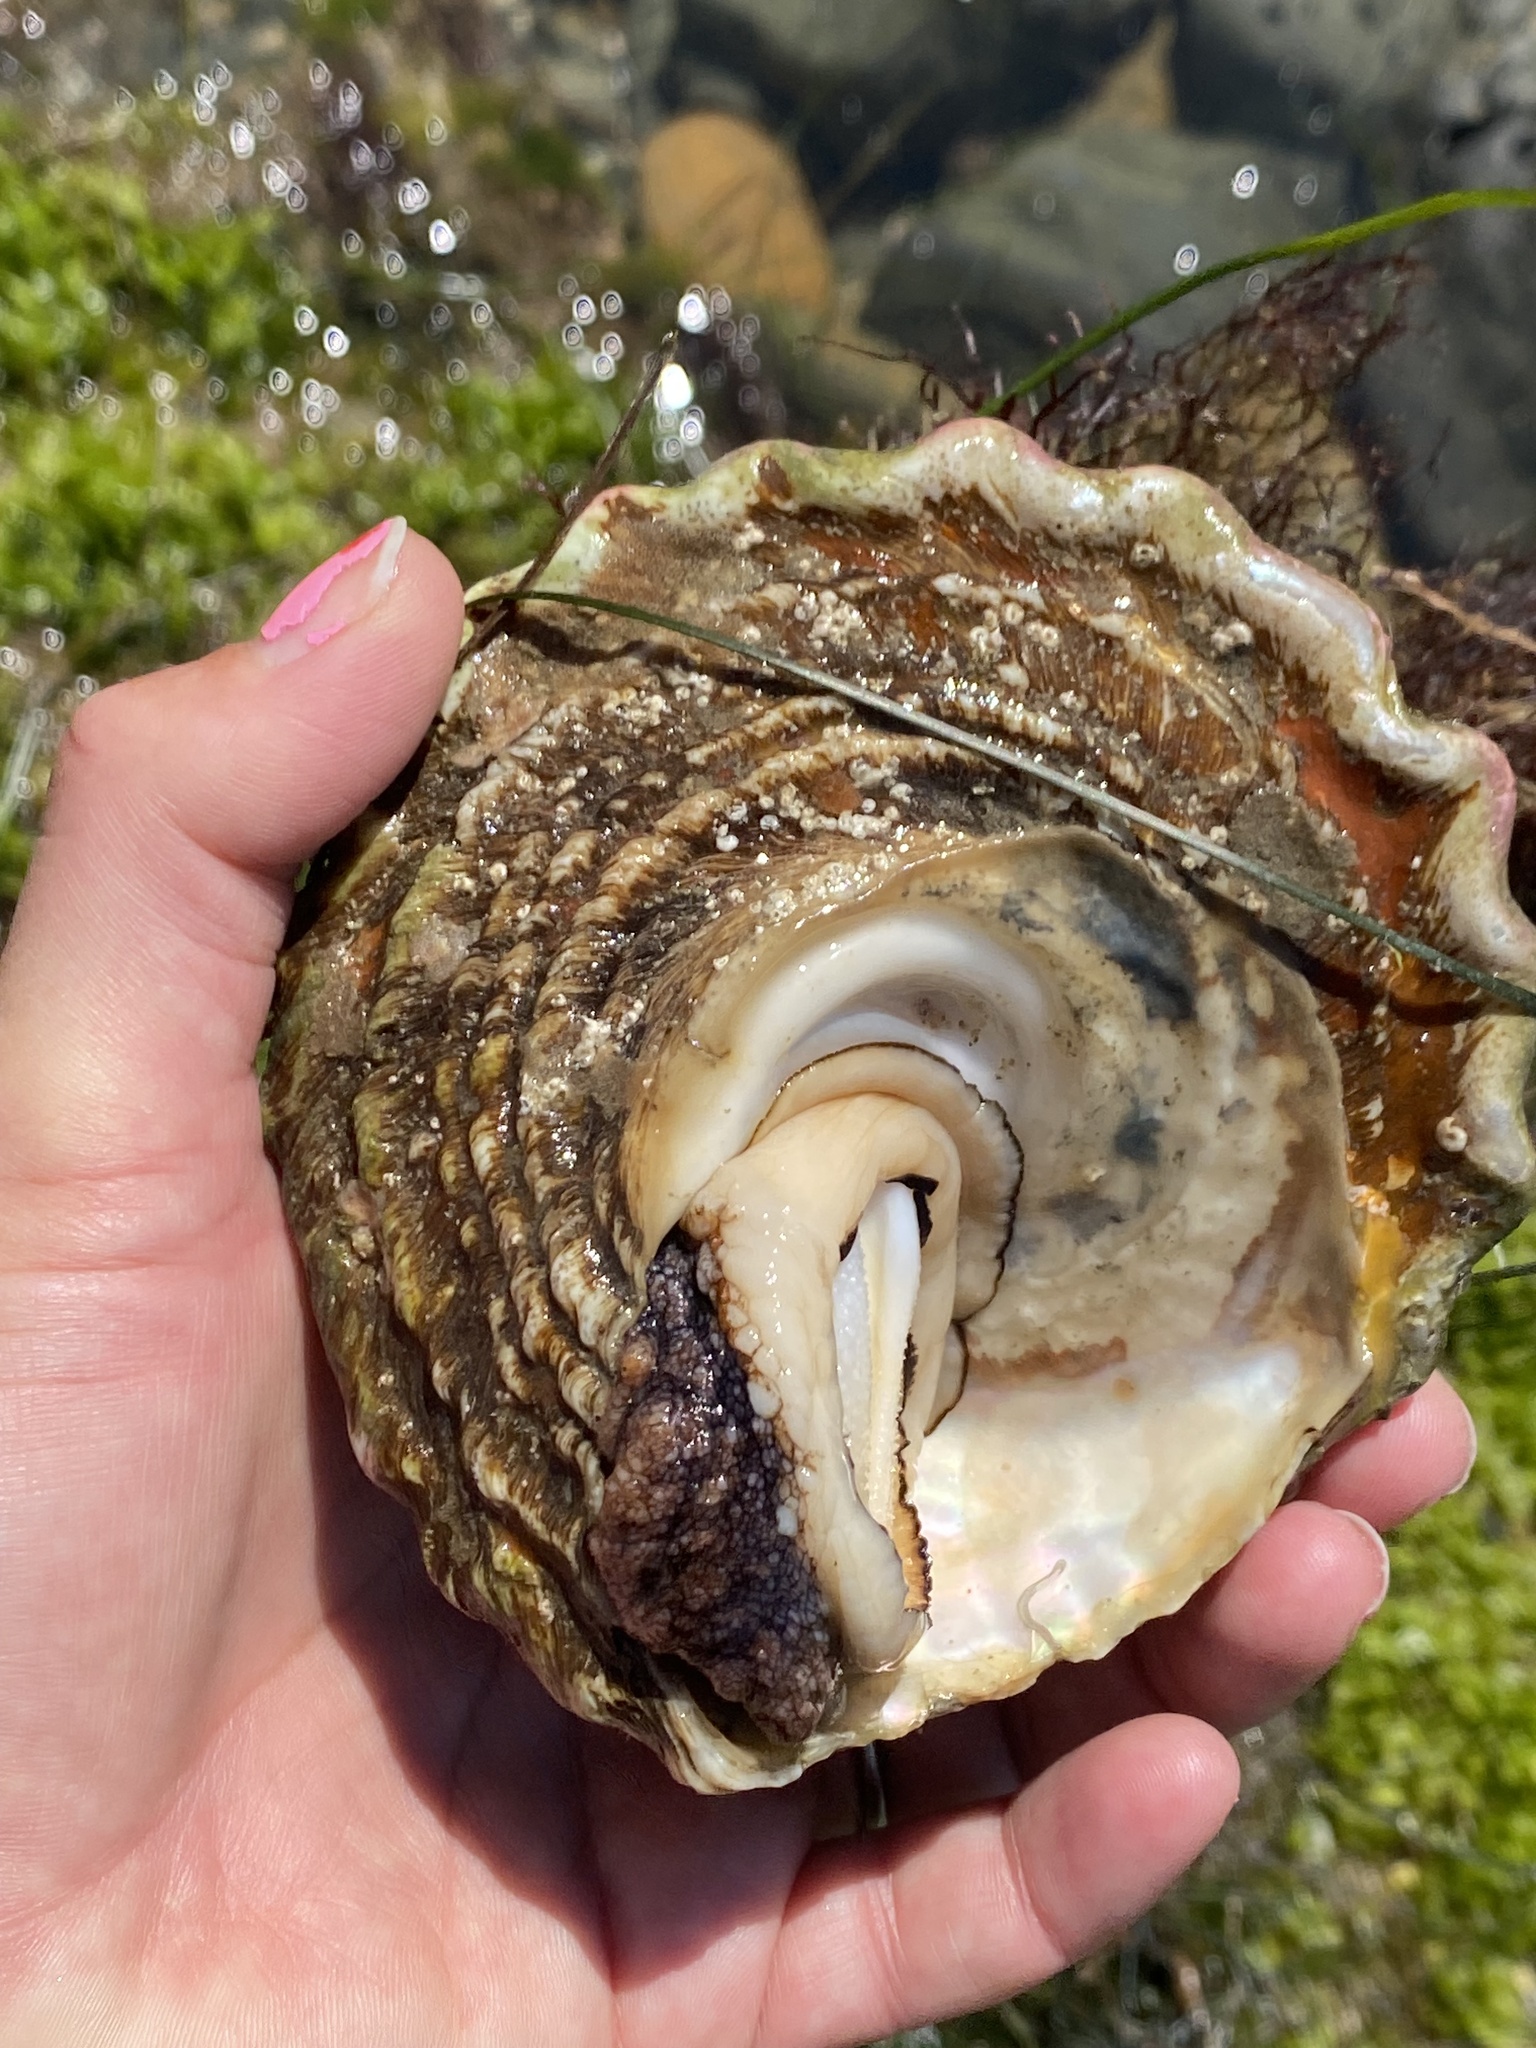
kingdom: Animalia
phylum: Mollusca
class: Gastropoda
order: Trochida
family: Turbinidae
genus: Megastraea
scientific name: Megastraea undosa
